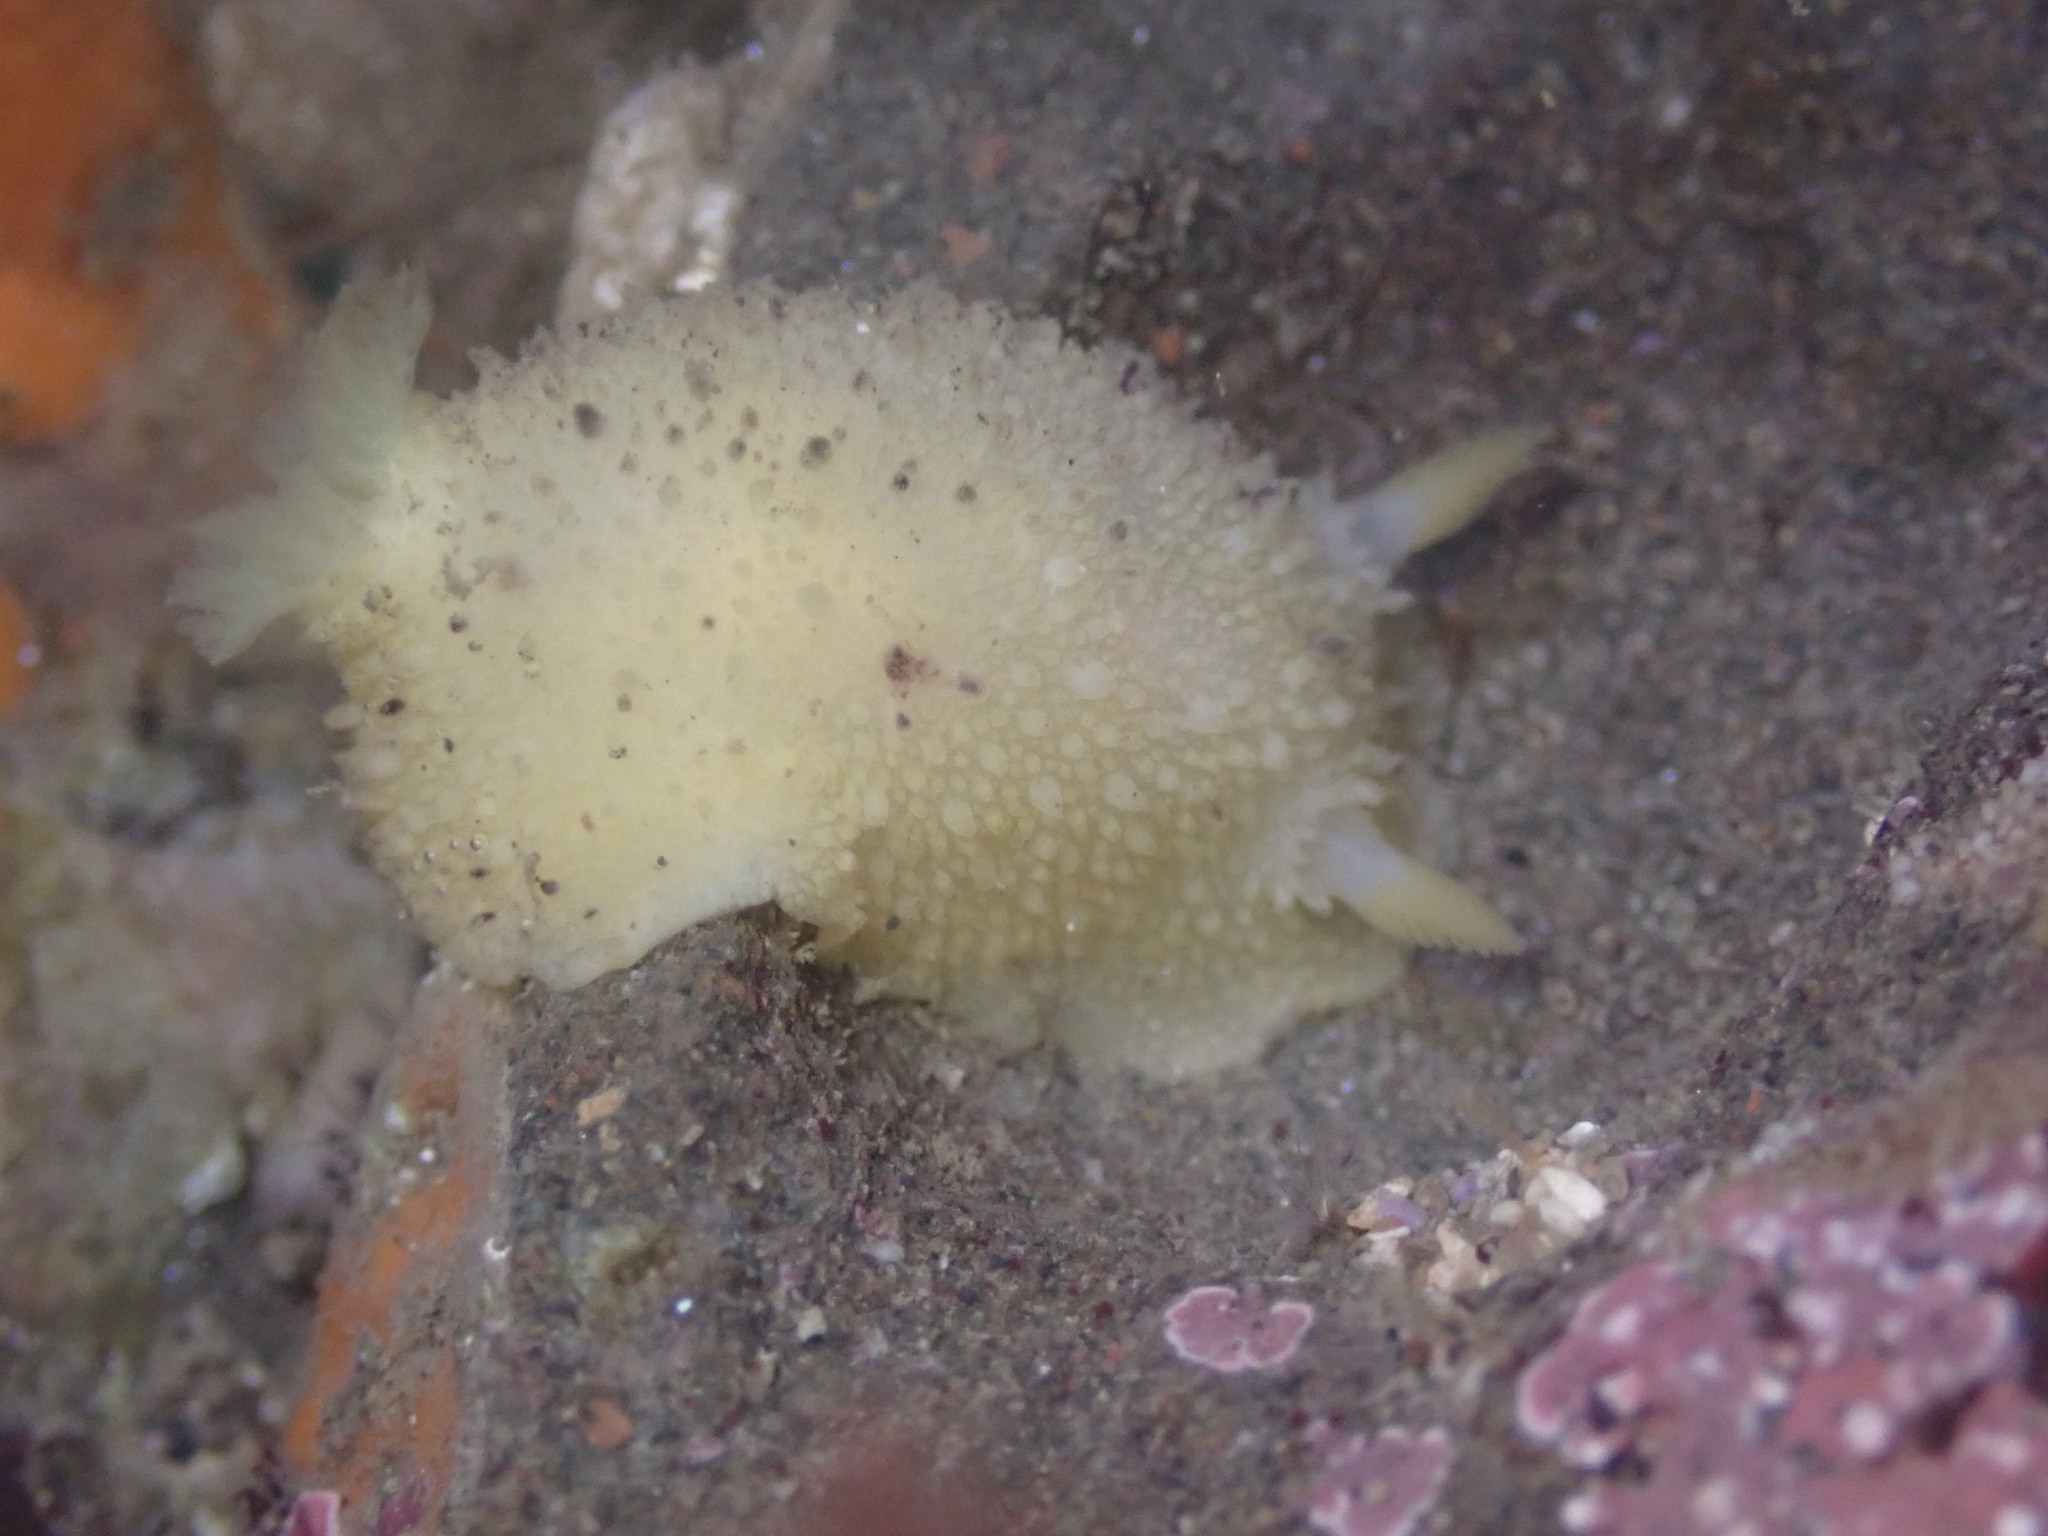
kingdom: Animalia
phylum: Mollusca
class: Gastropoda
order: Nudibranchia
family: Dorididae
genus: Doris
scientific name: Doris montereyensis
